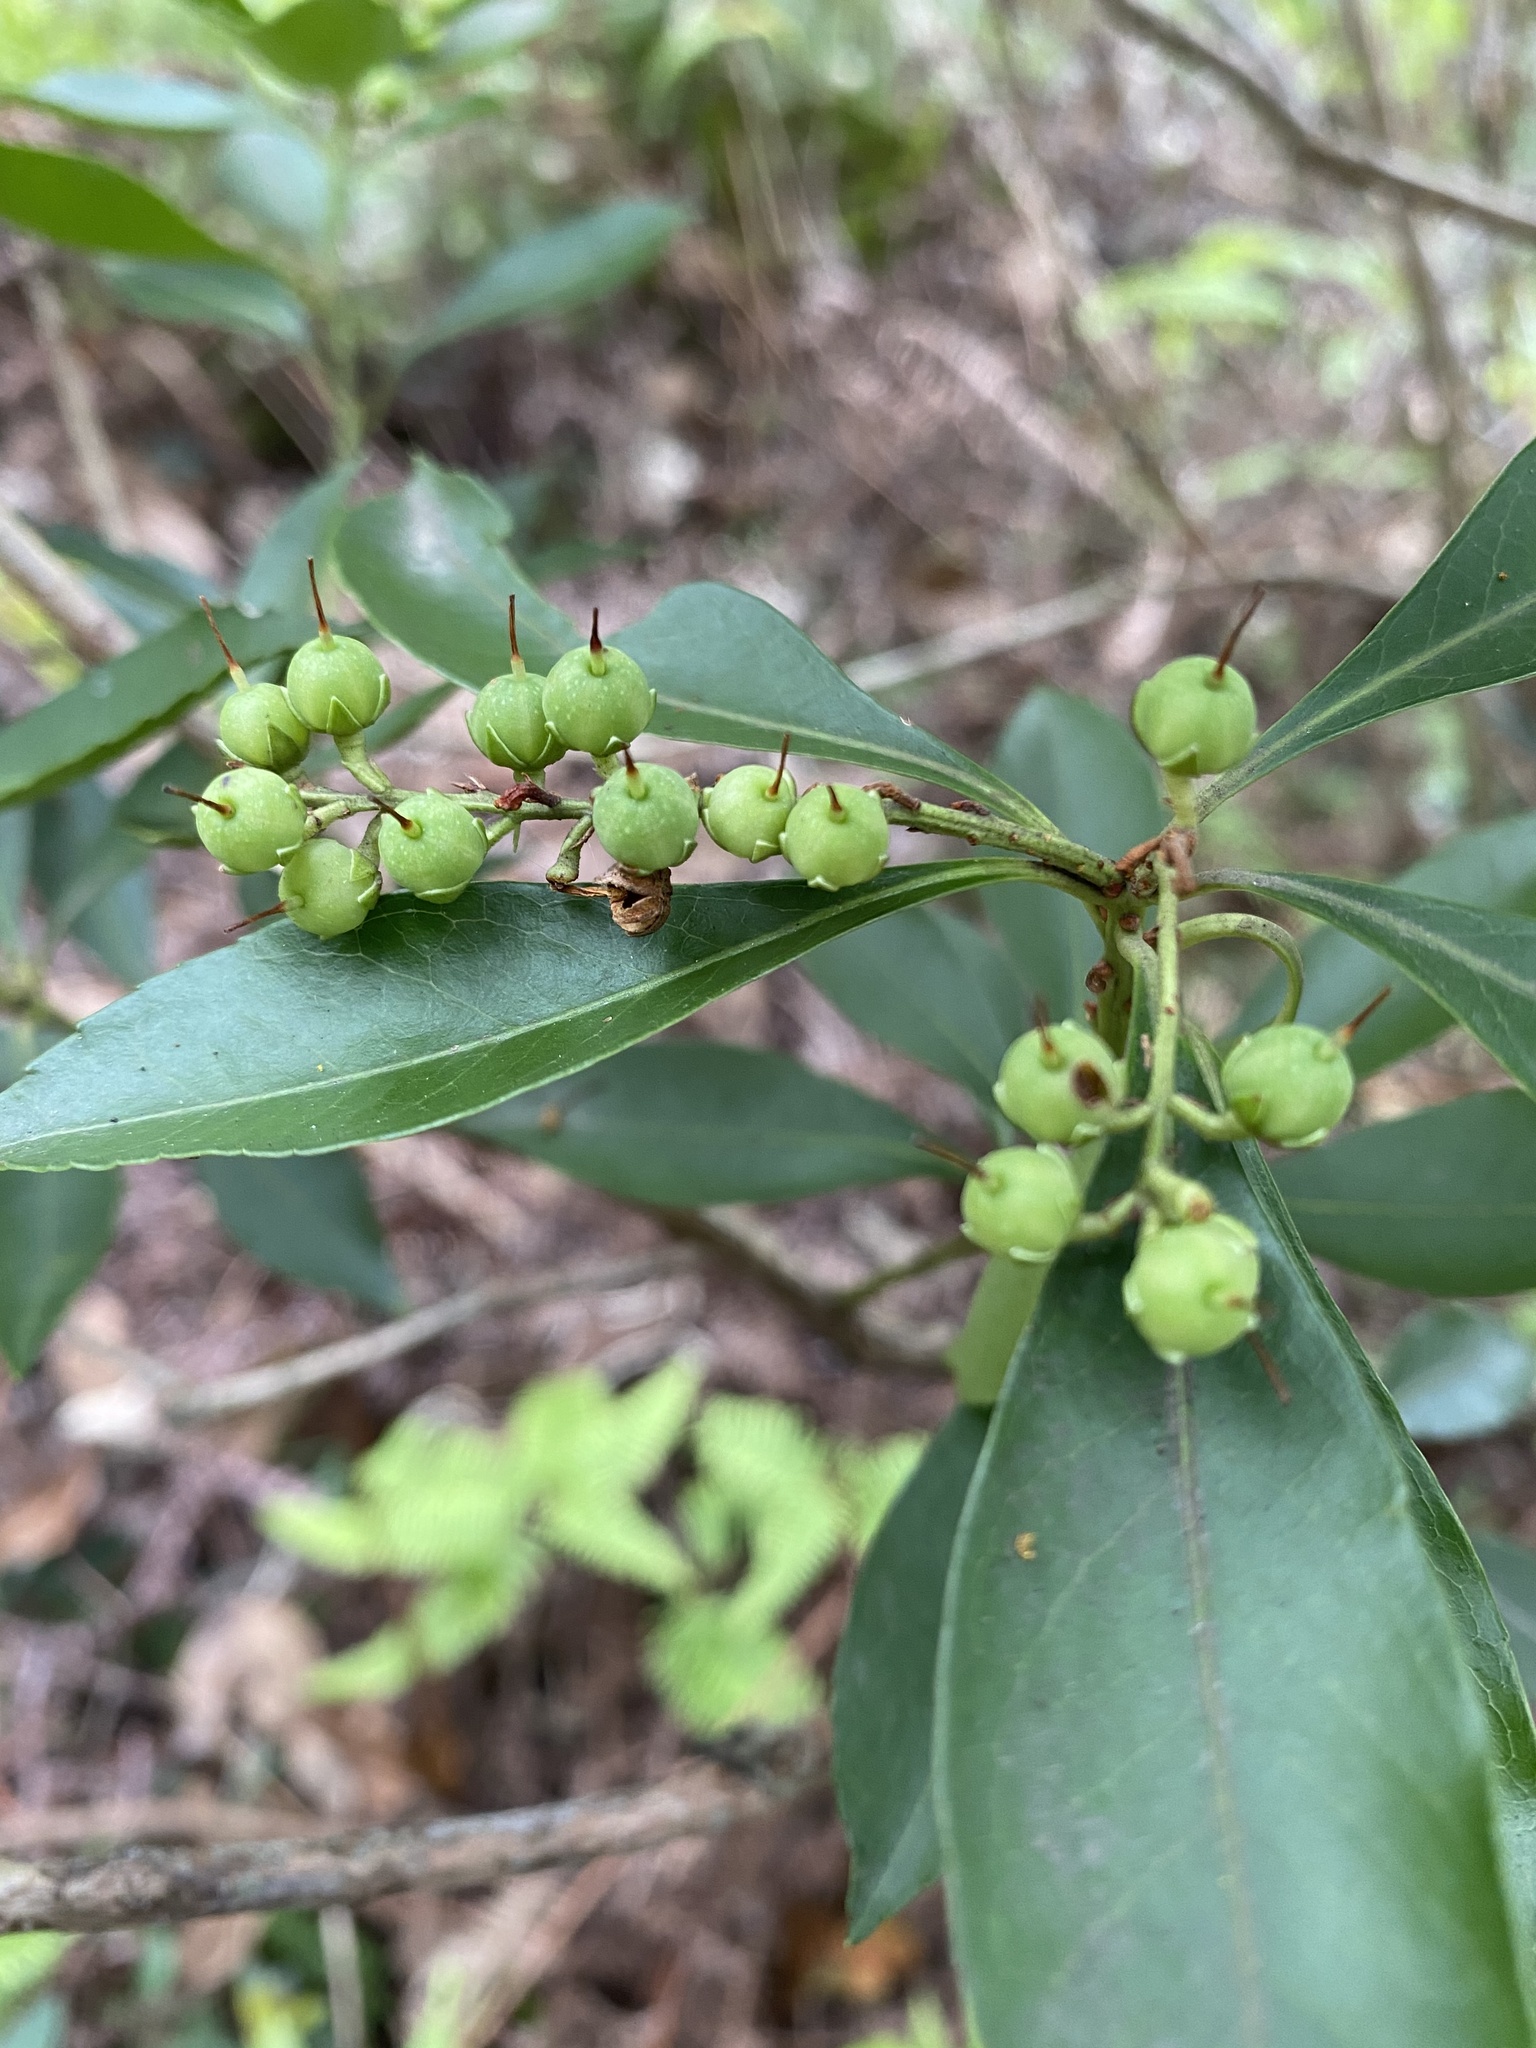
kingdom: Plantae
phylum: Tracheophyta
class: Magnoliopsida
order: Ericales
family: Ericaceae
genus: Pieris
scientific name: Pieris japonica
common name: Japanese pieris
